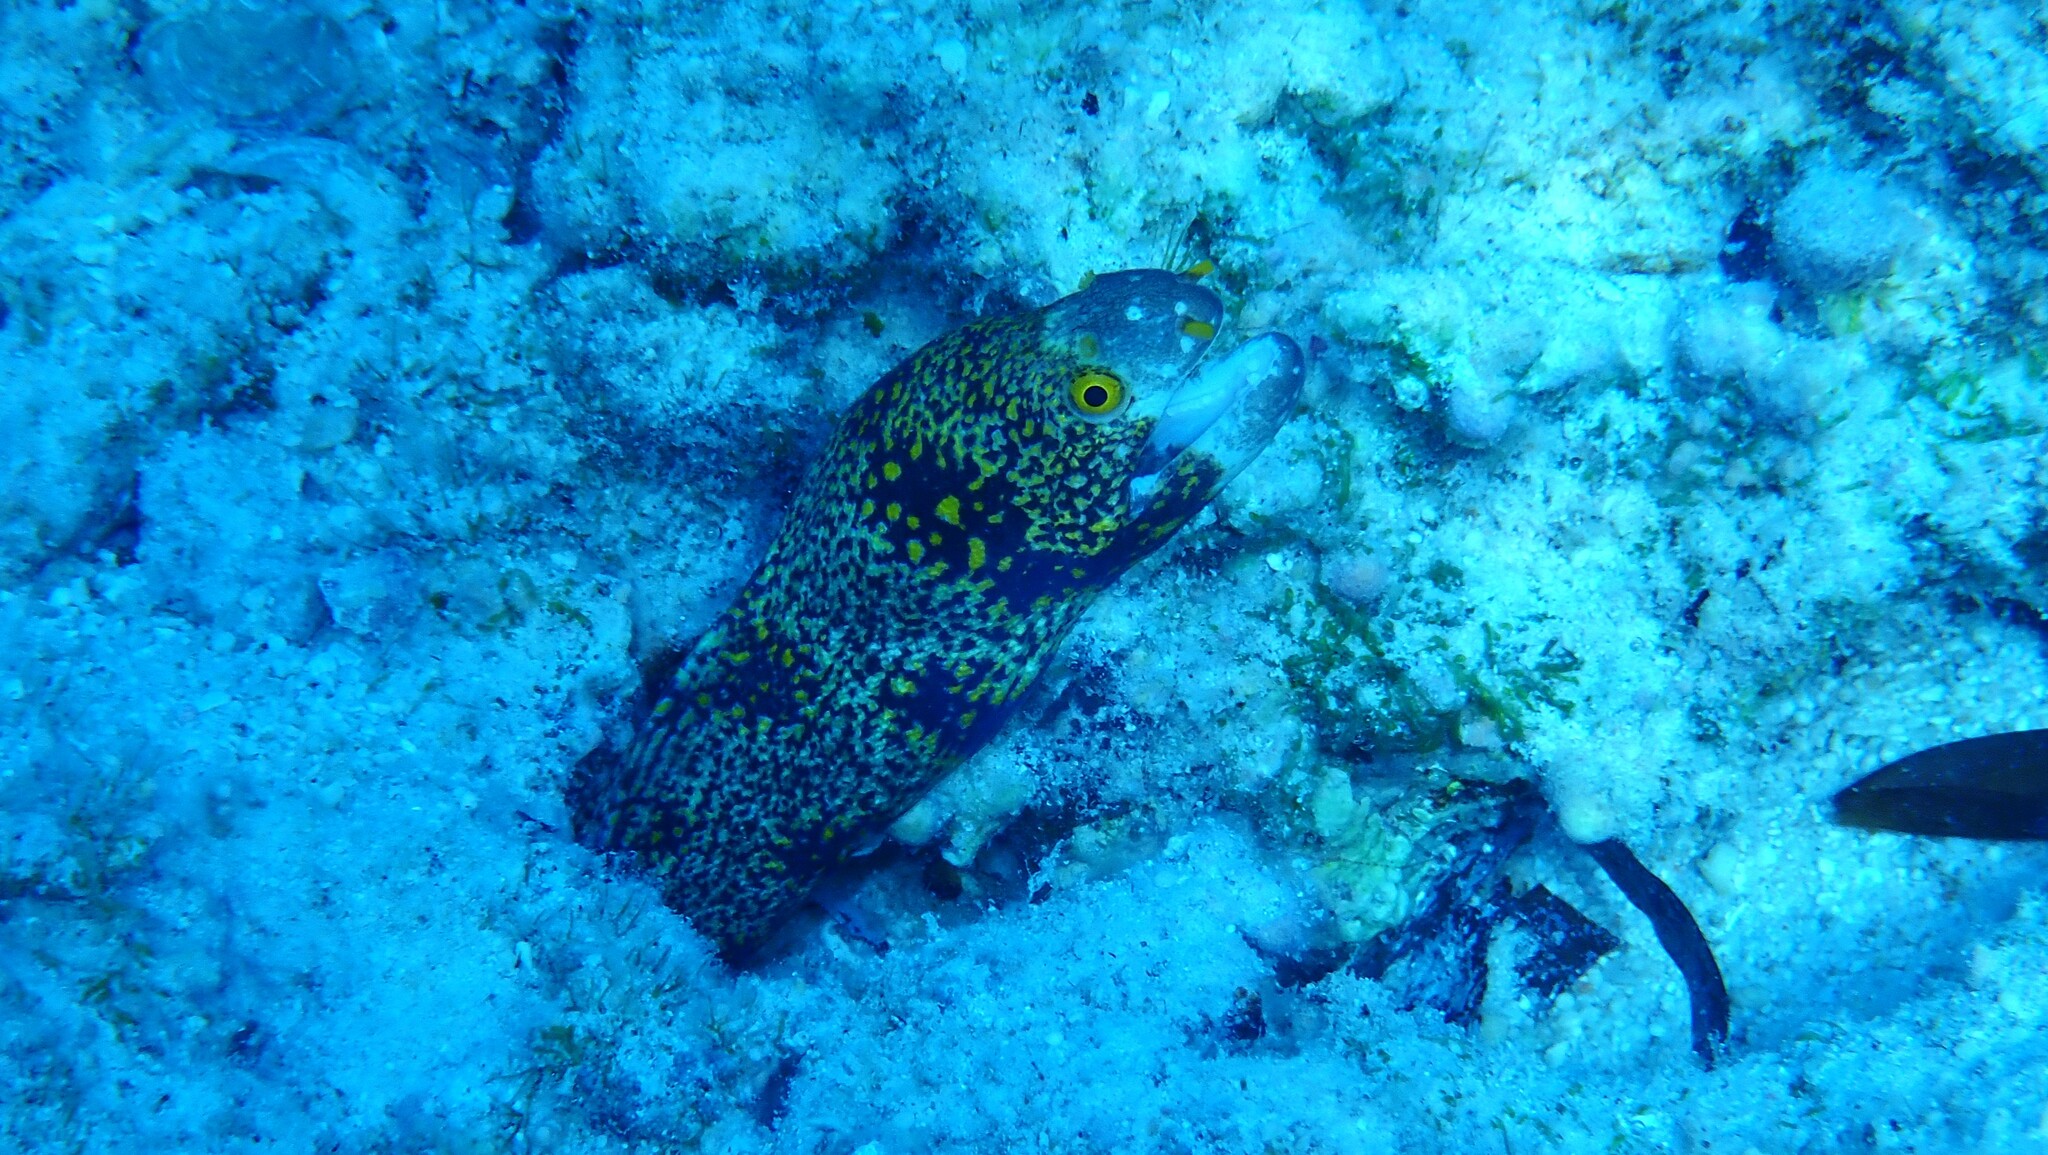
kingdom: Animalia
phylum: Chordata
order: Anguilliformes
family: Muraenidae
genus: Echidna
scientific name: Echidna nebulosa
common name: Snowflake moray
